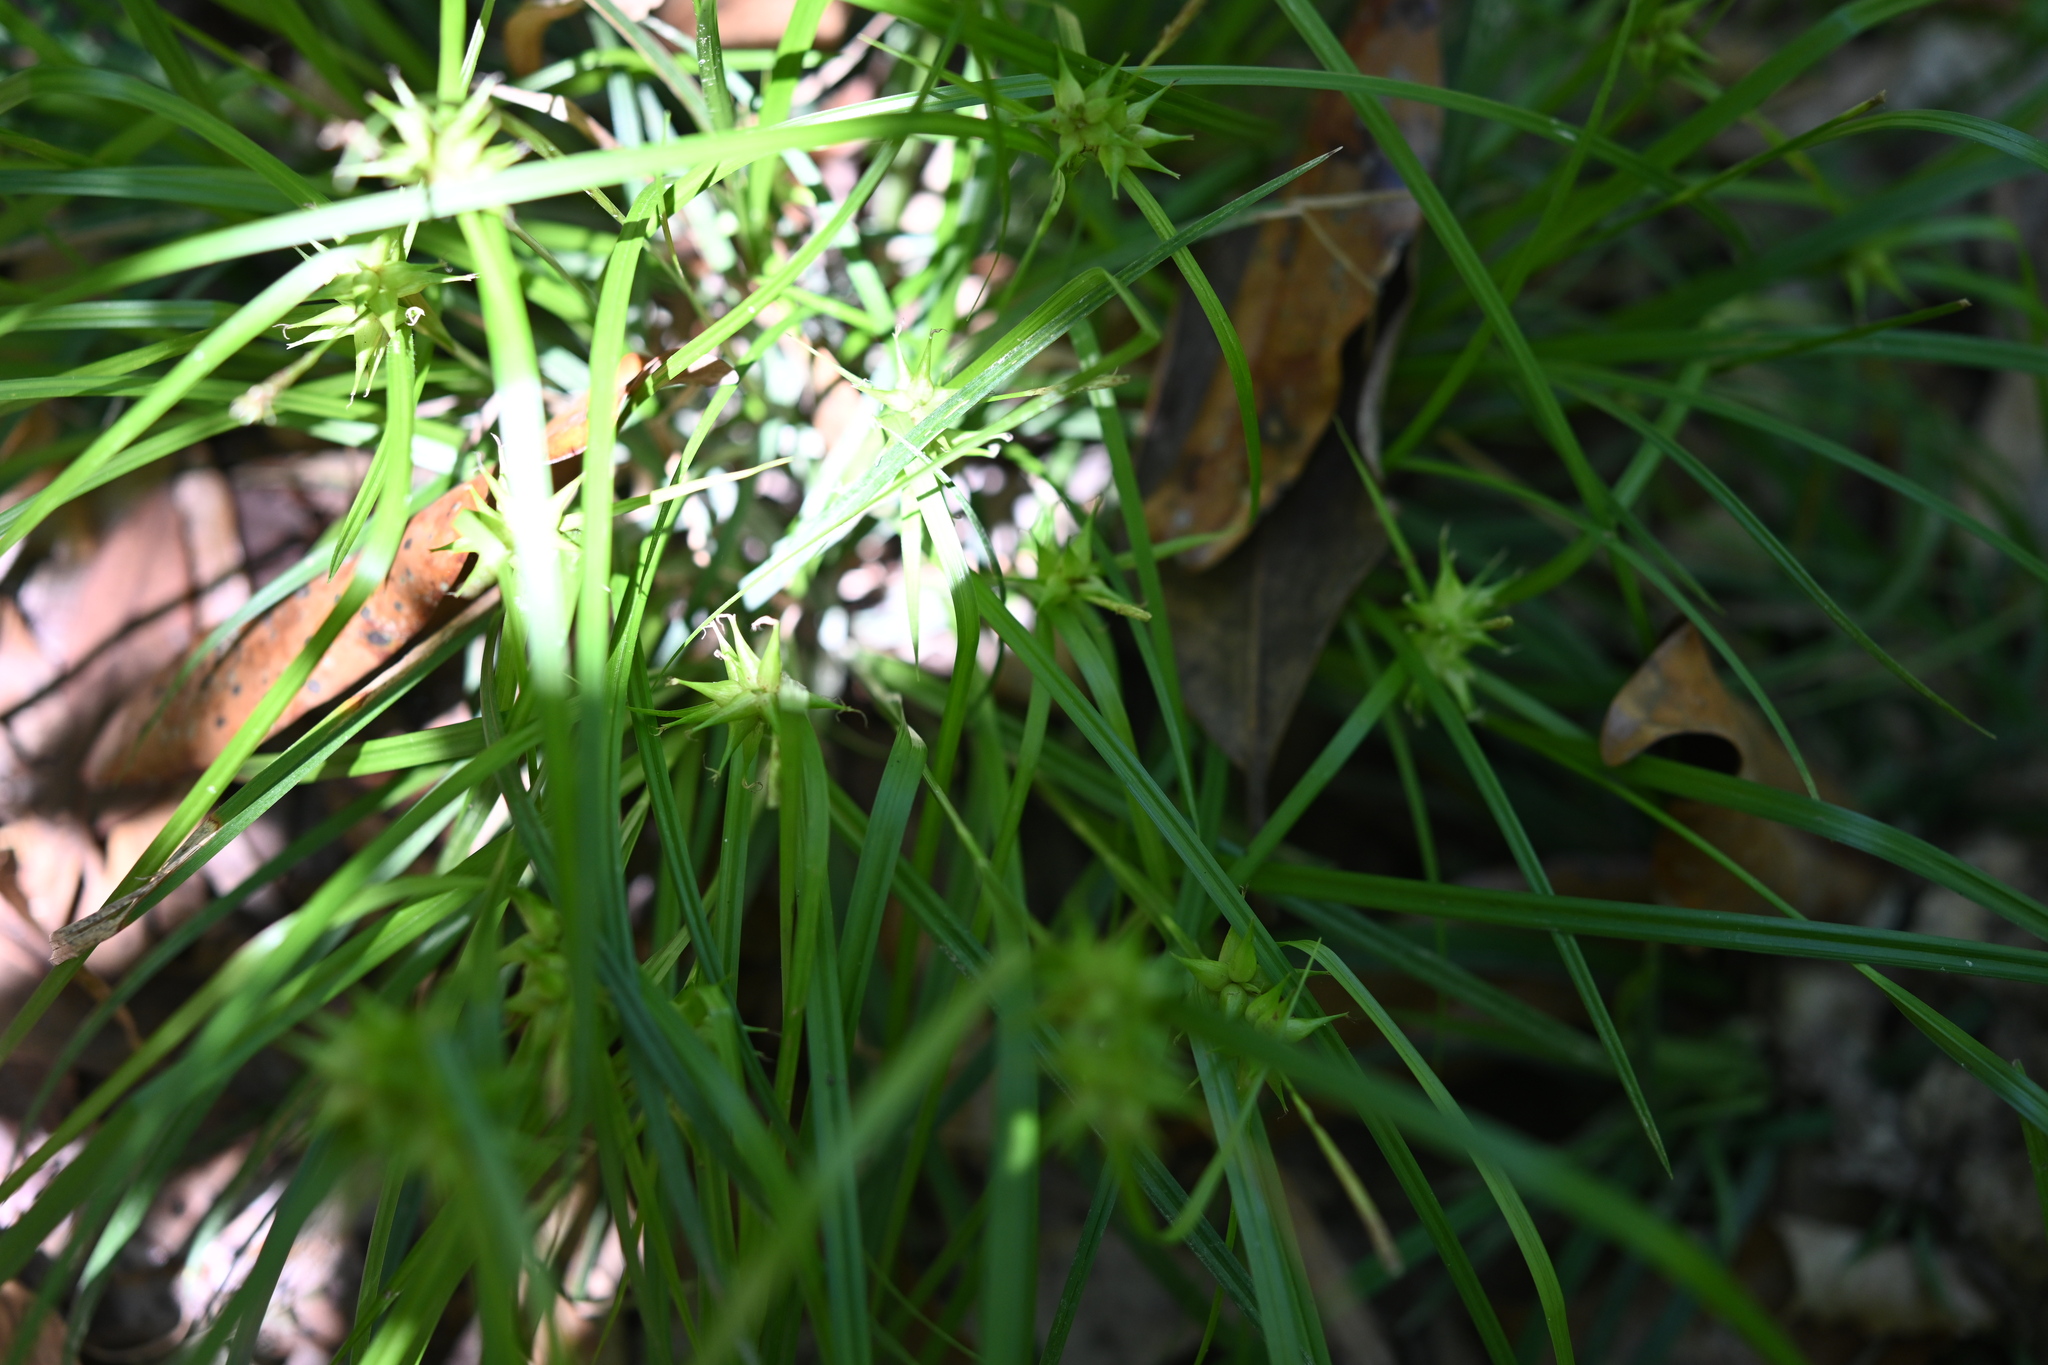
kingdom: Plantae
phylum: Tracheophyta
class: Liliopsida
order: Poales
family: Cyperaceae
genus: Carex
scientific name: Carex intumescens
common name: Greater bladder sedge
